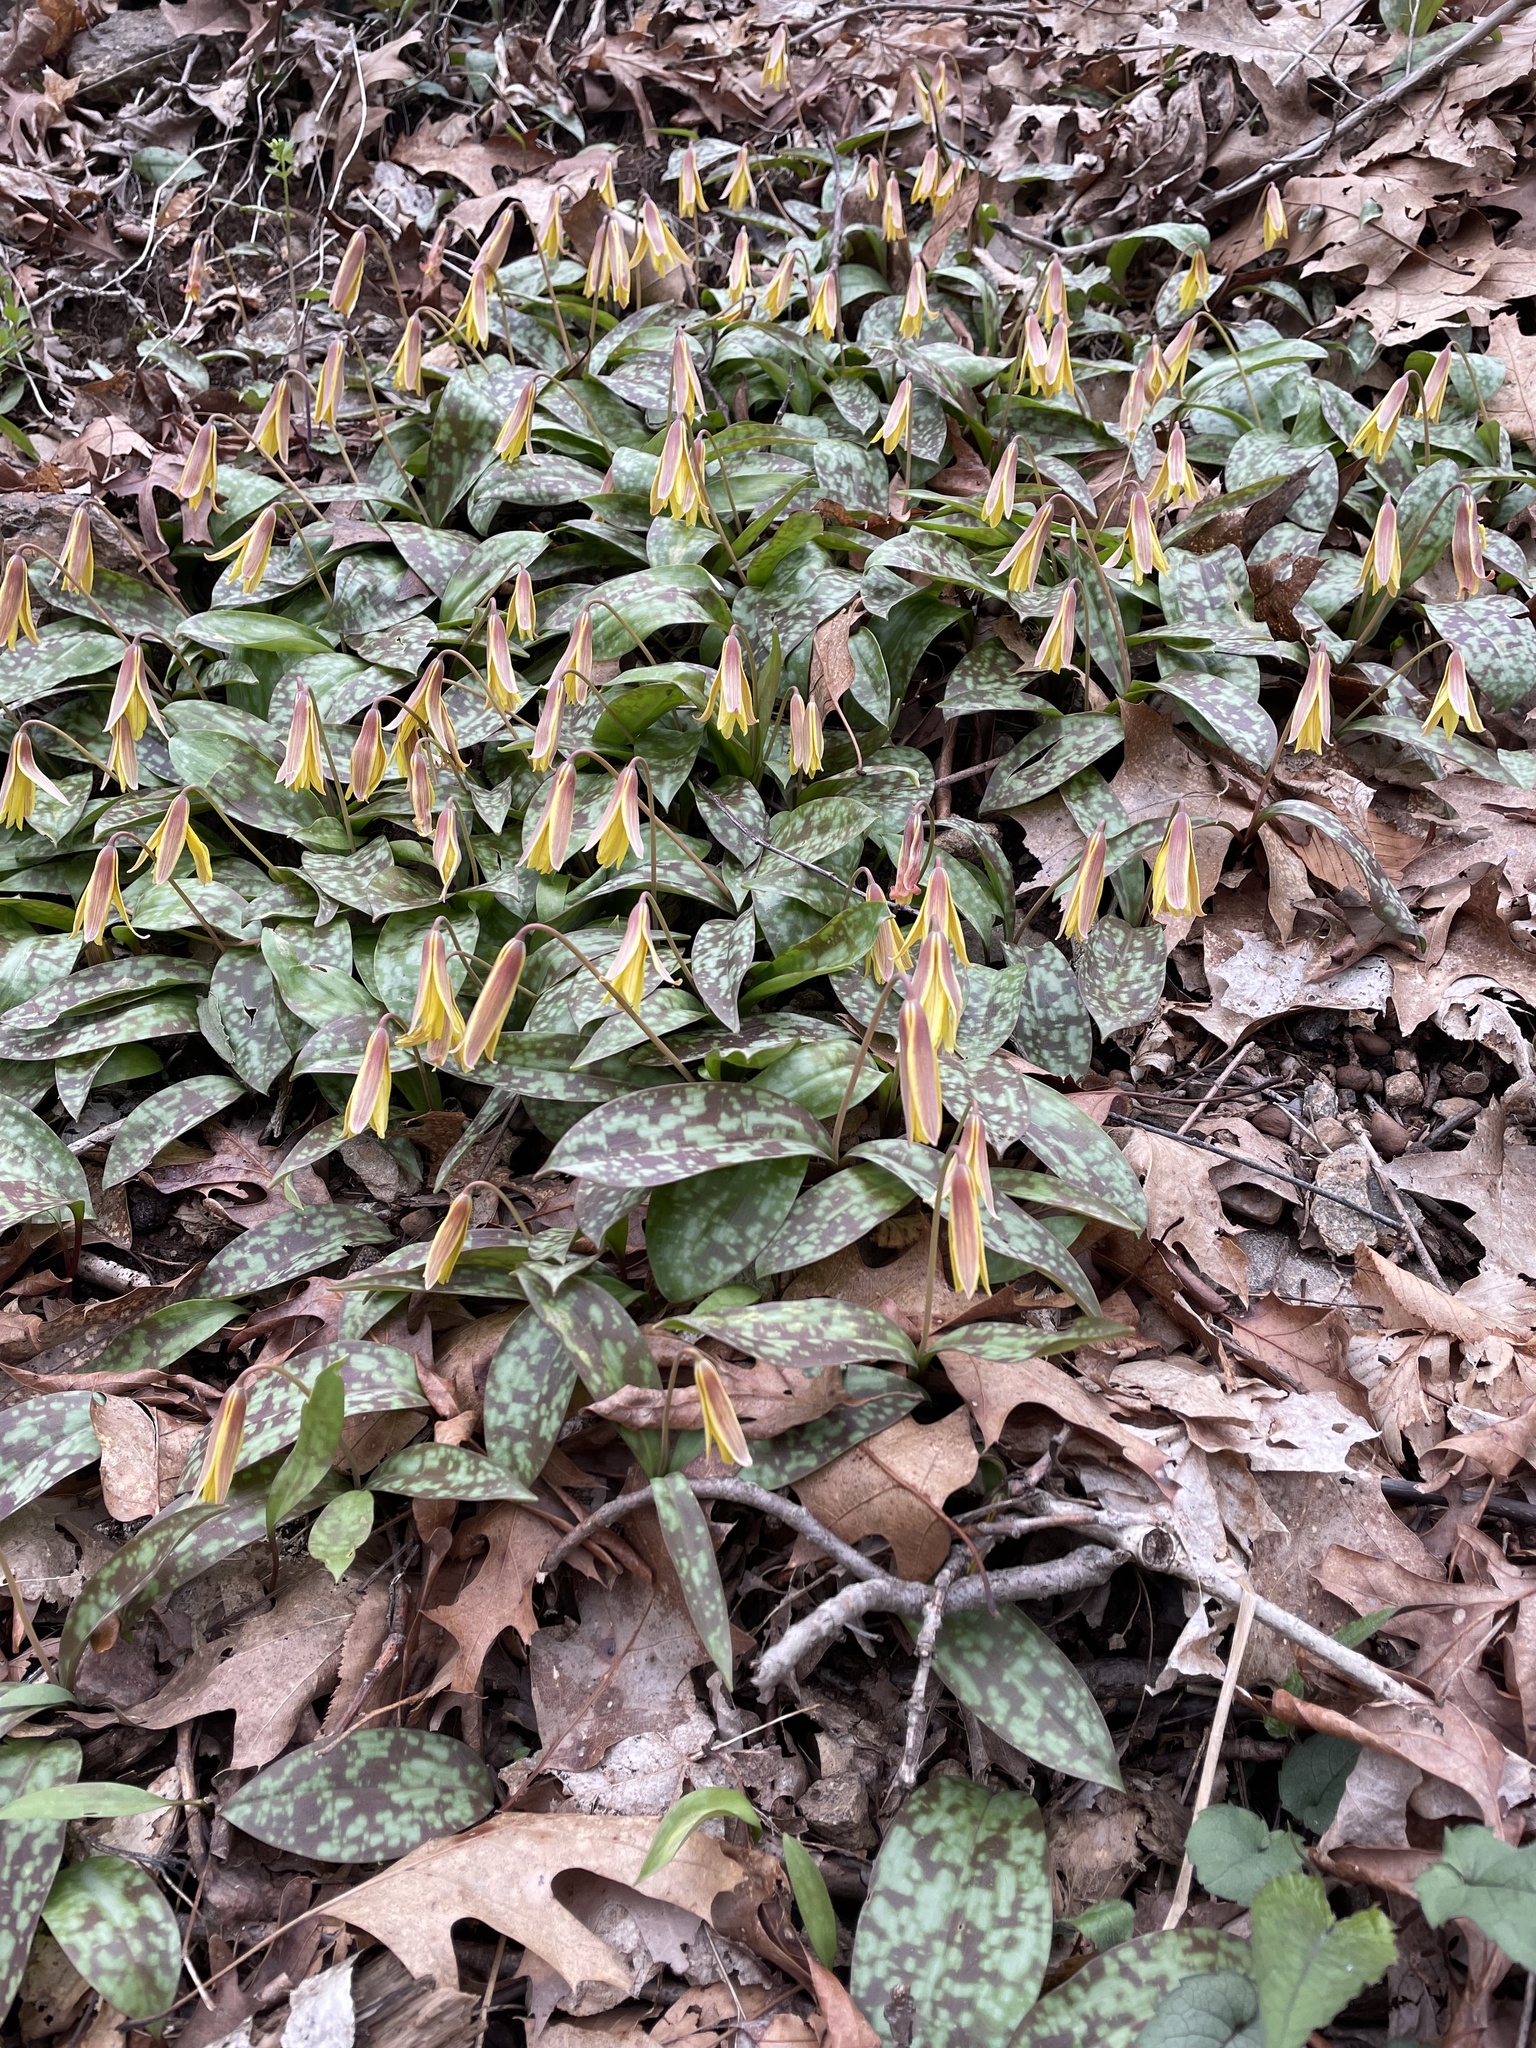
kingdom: Plantae
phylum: Tracheophyta
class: Liliopsida
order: Liliales
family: Liliaceae
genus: Erythronium
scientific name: Erythronium americanum
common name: Yellow adder's-tongue
